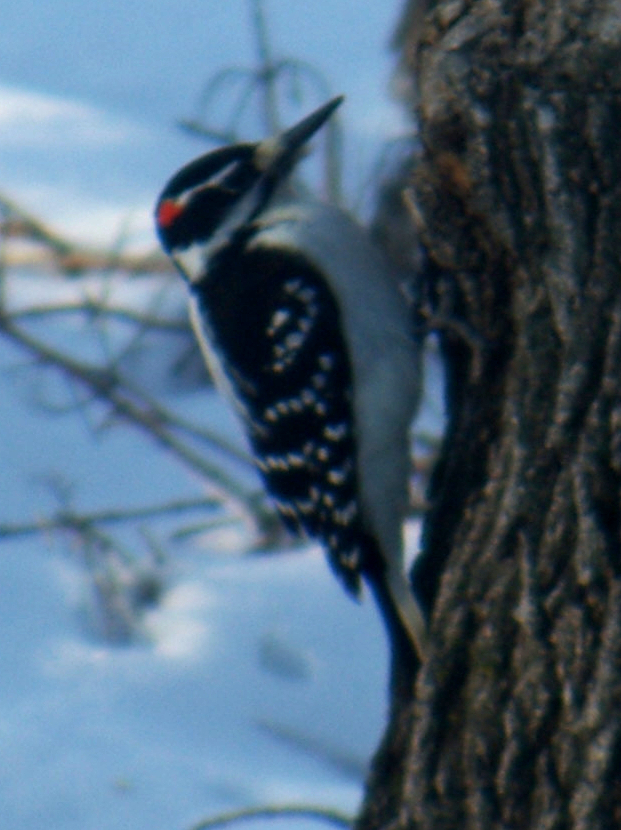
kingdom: Animalia
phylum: Chordata
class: Aves
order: Piciformes
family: Picidae
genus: Leuconotopicus
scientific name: Leuconotopicus villosus
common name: Hairy woodpecker
